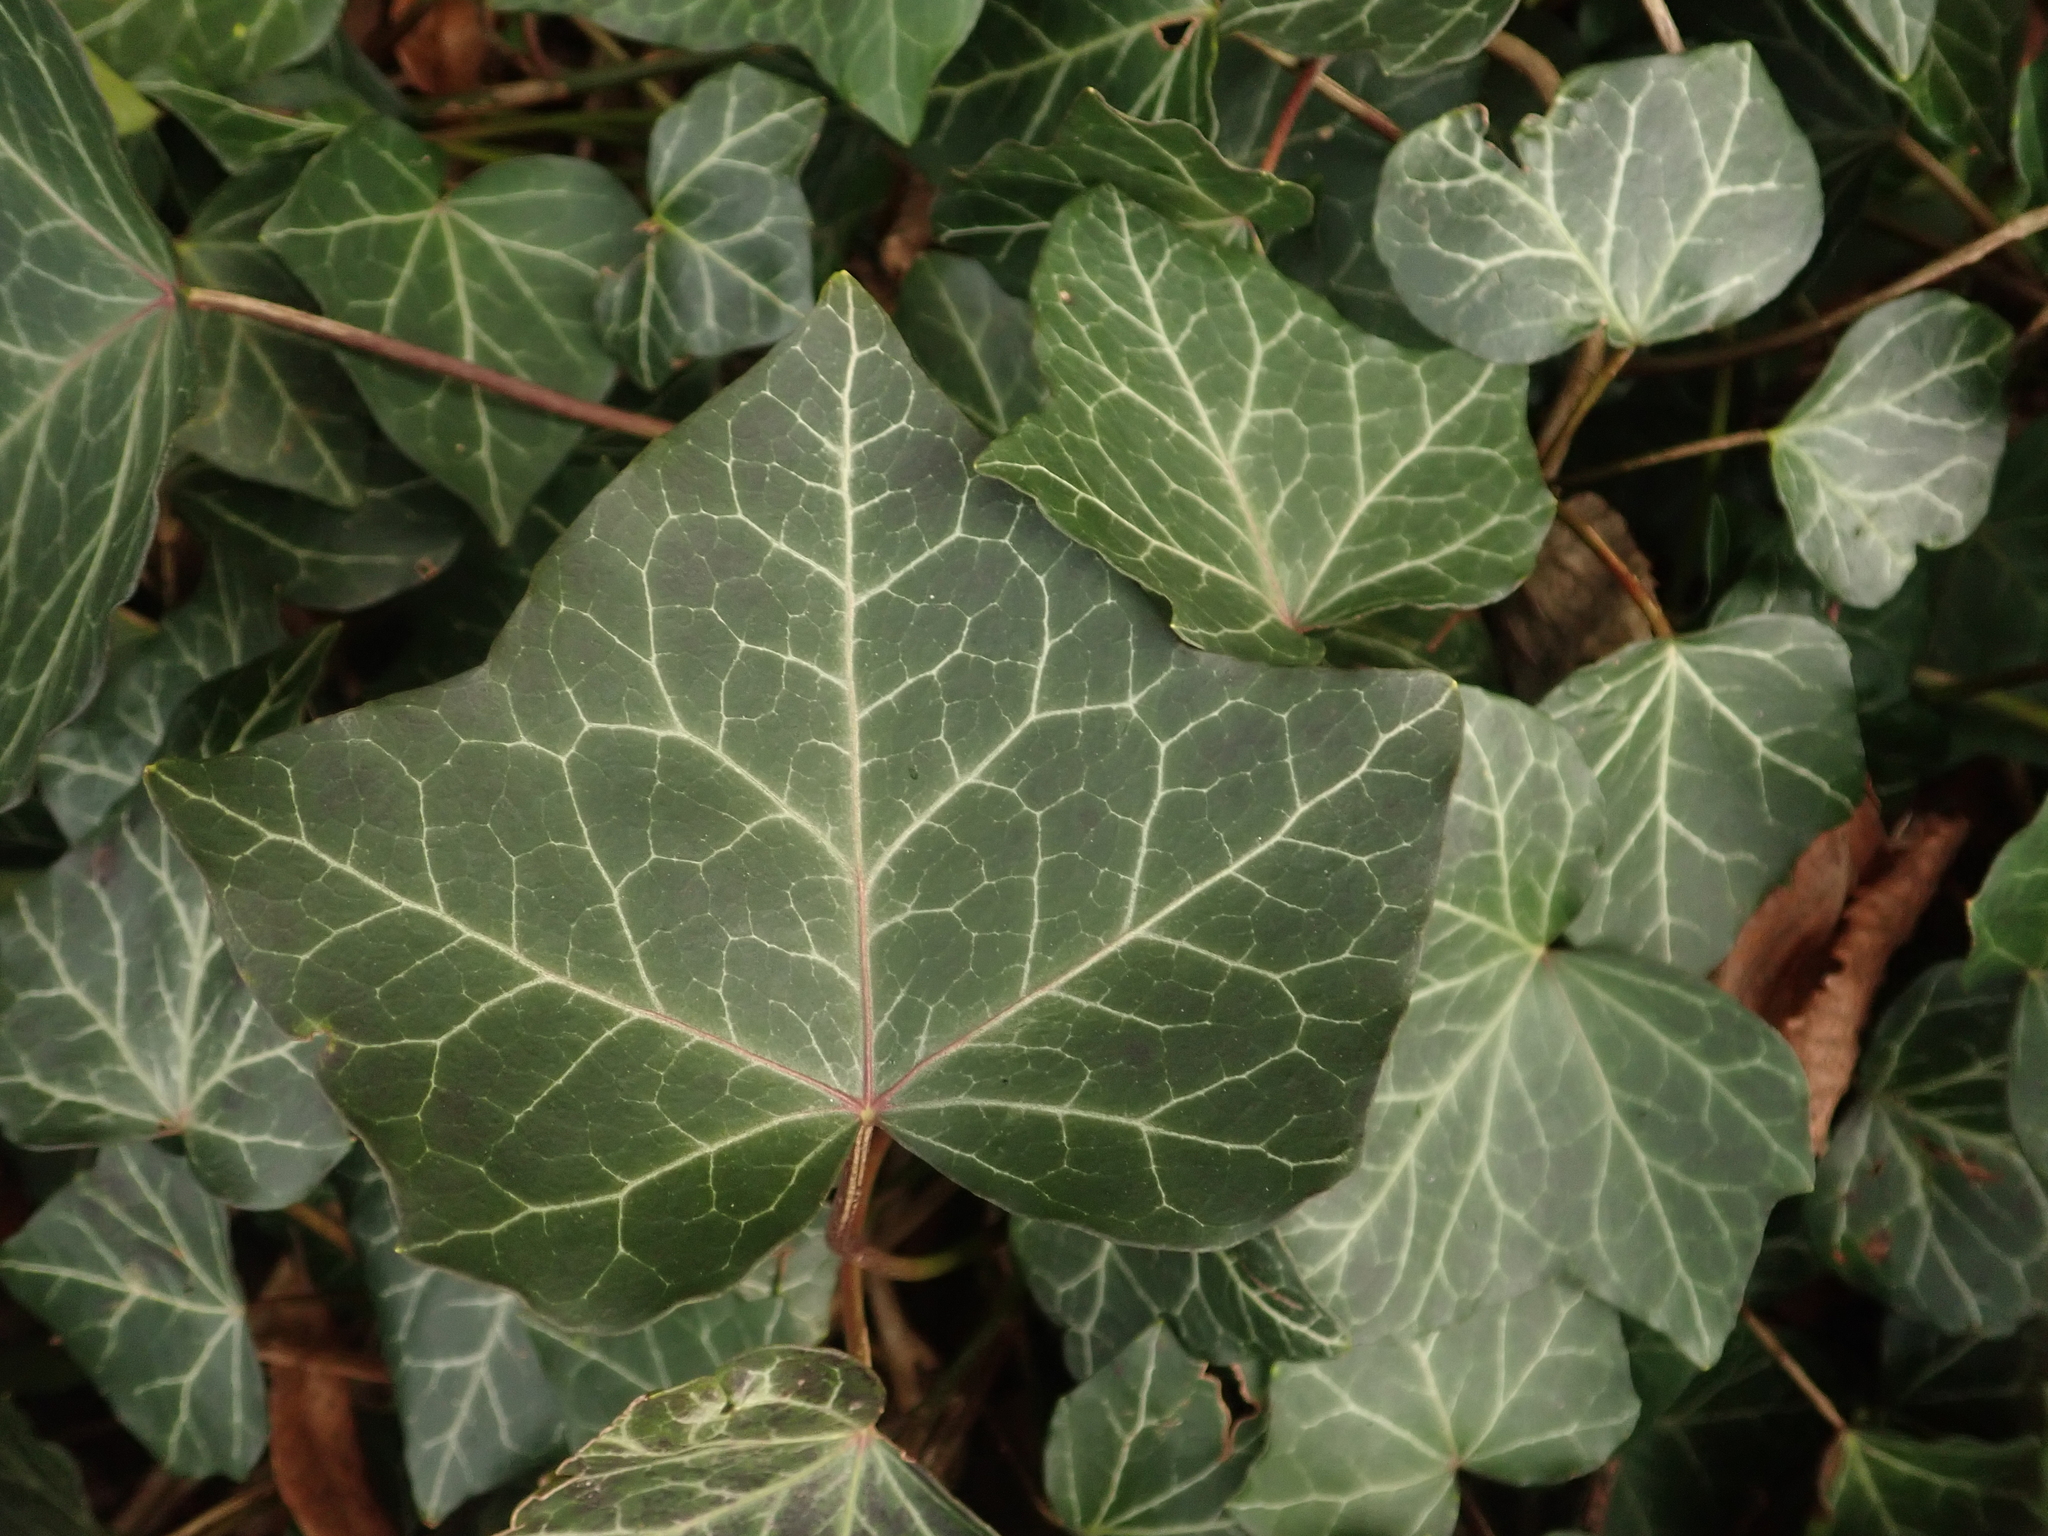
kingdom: Plantae
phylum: Tracheophyta
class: Magnoliopsida
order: Apiales
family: Araliaceae
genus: Hedera
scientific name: Hedera helix
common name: Ivy
